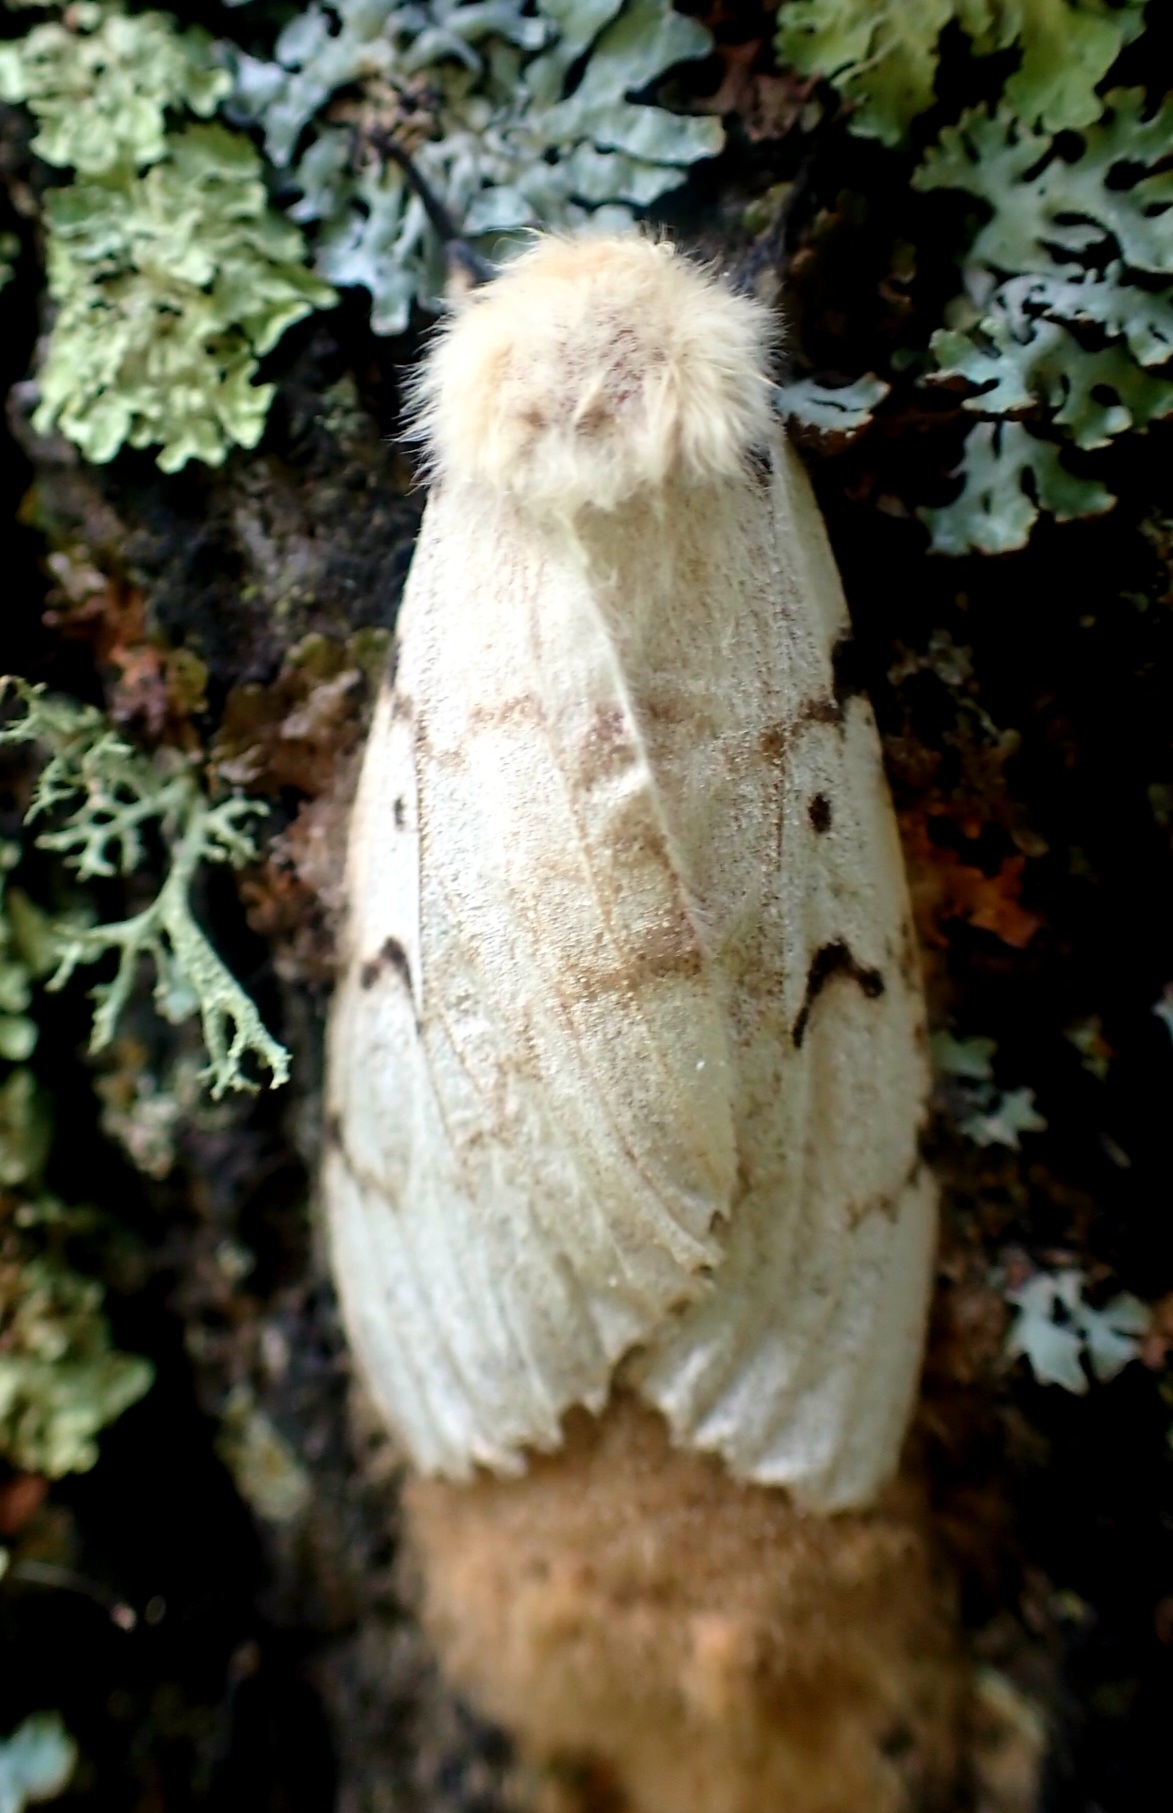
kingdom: Animalia
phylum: Arthropoda
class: Insecta
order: Lepidoptera
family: Erebidae
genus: Lymantria
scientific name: Lymantria dispar
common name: Gypsy moth
